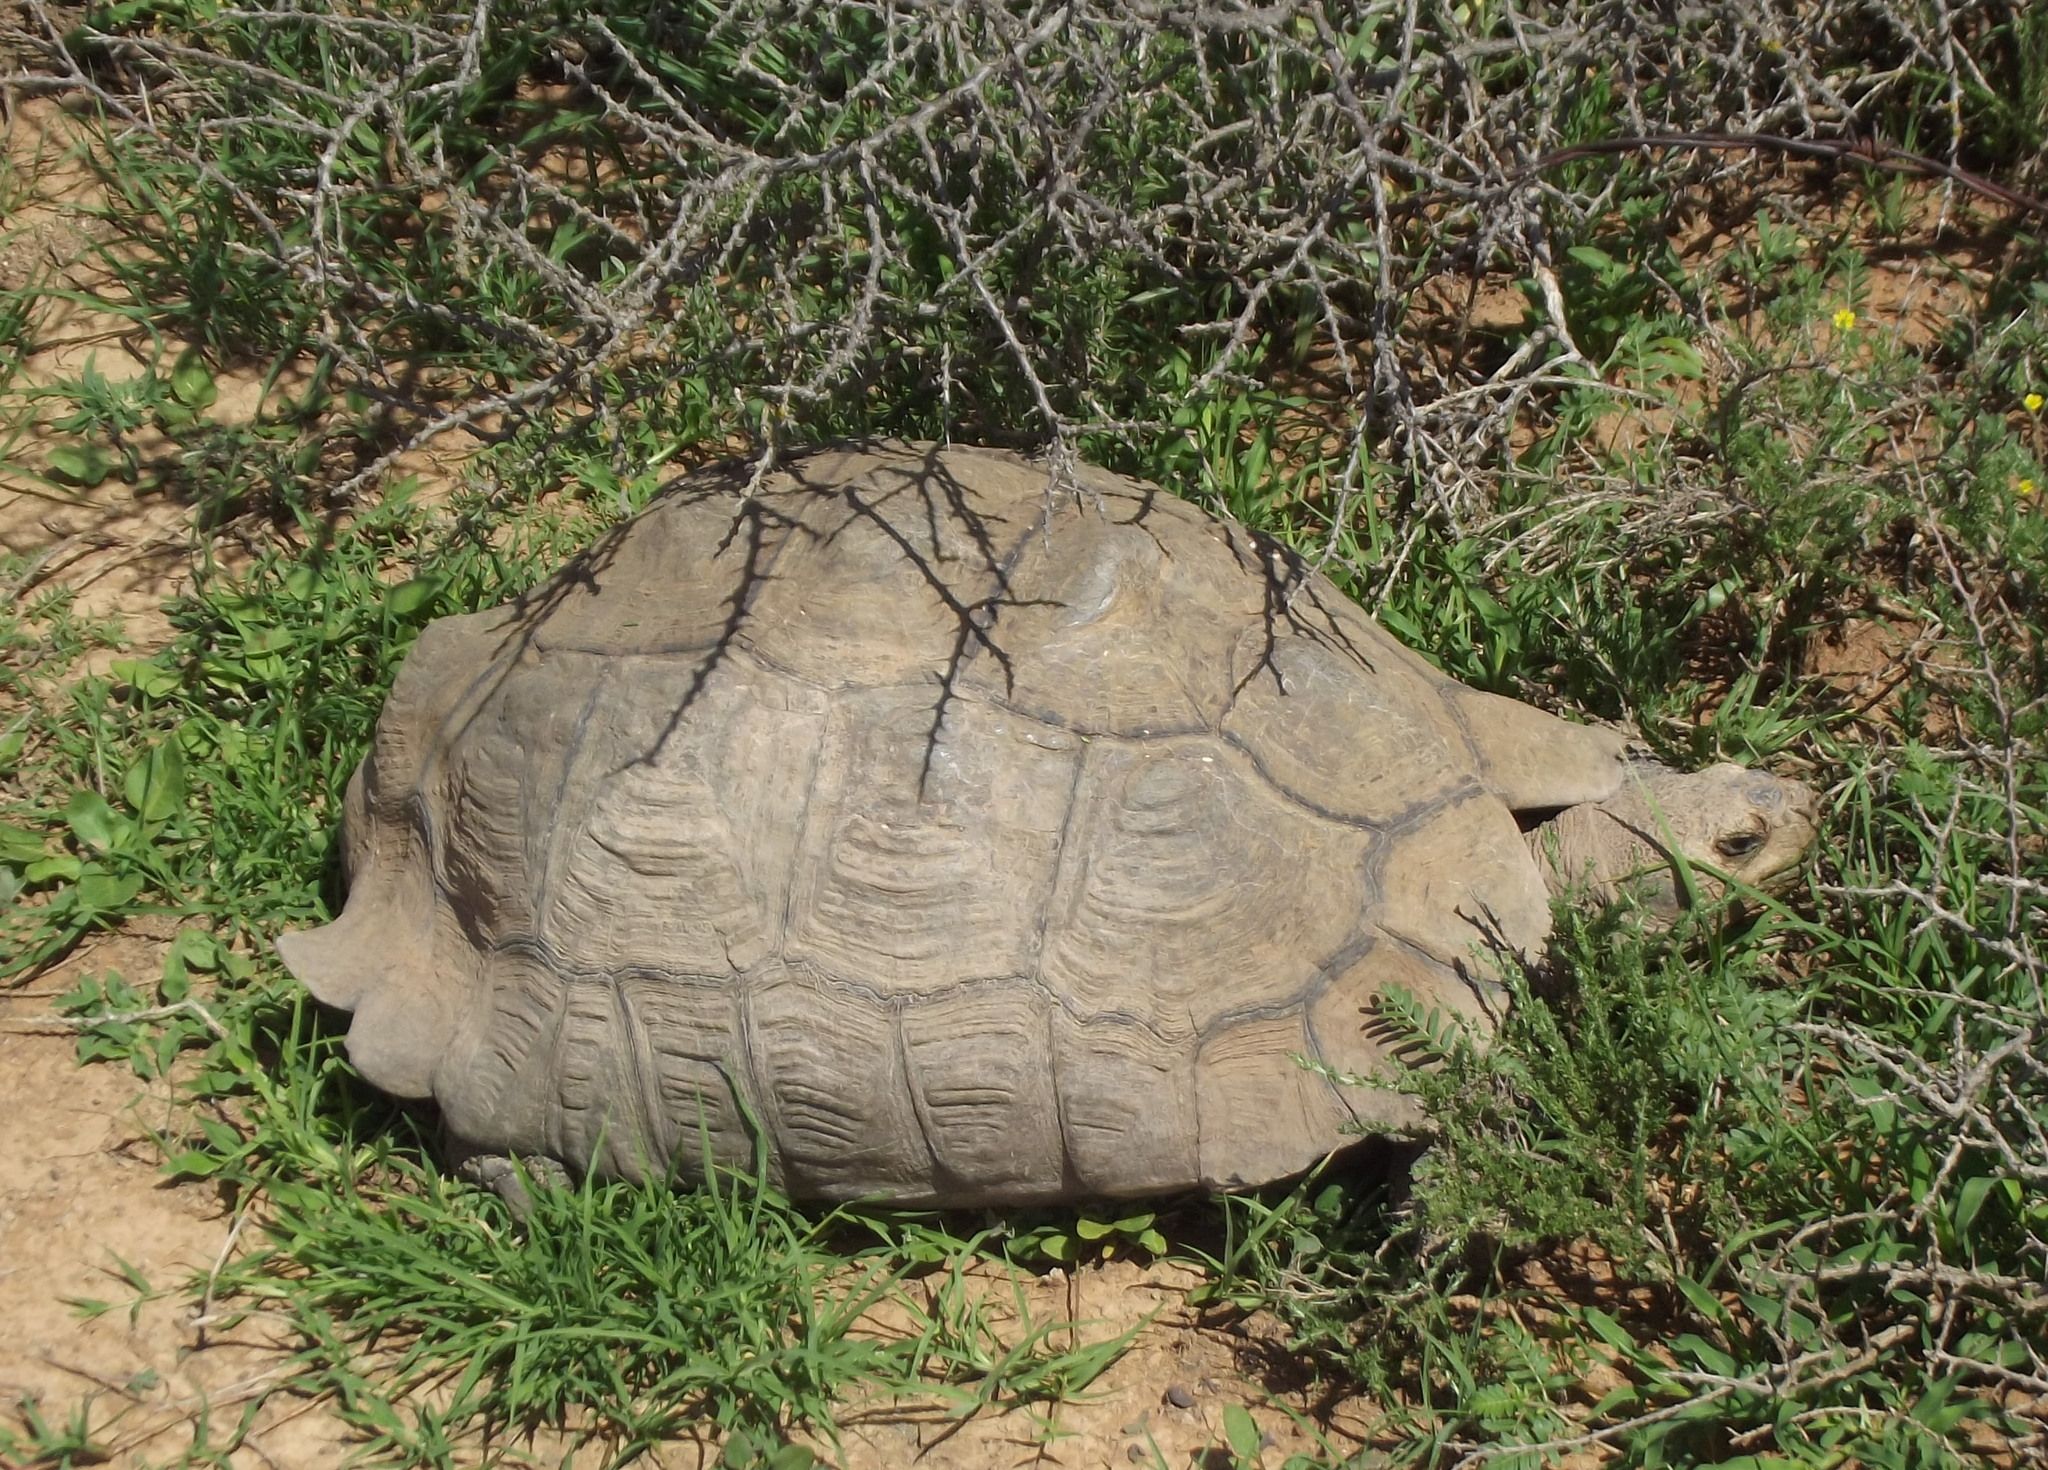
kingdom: Animalia
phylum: Chordata
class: Testudines
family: Testudinidae
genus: Stigmochelys
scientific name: Stigmochelys pardalis
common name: Leopard tortoise
